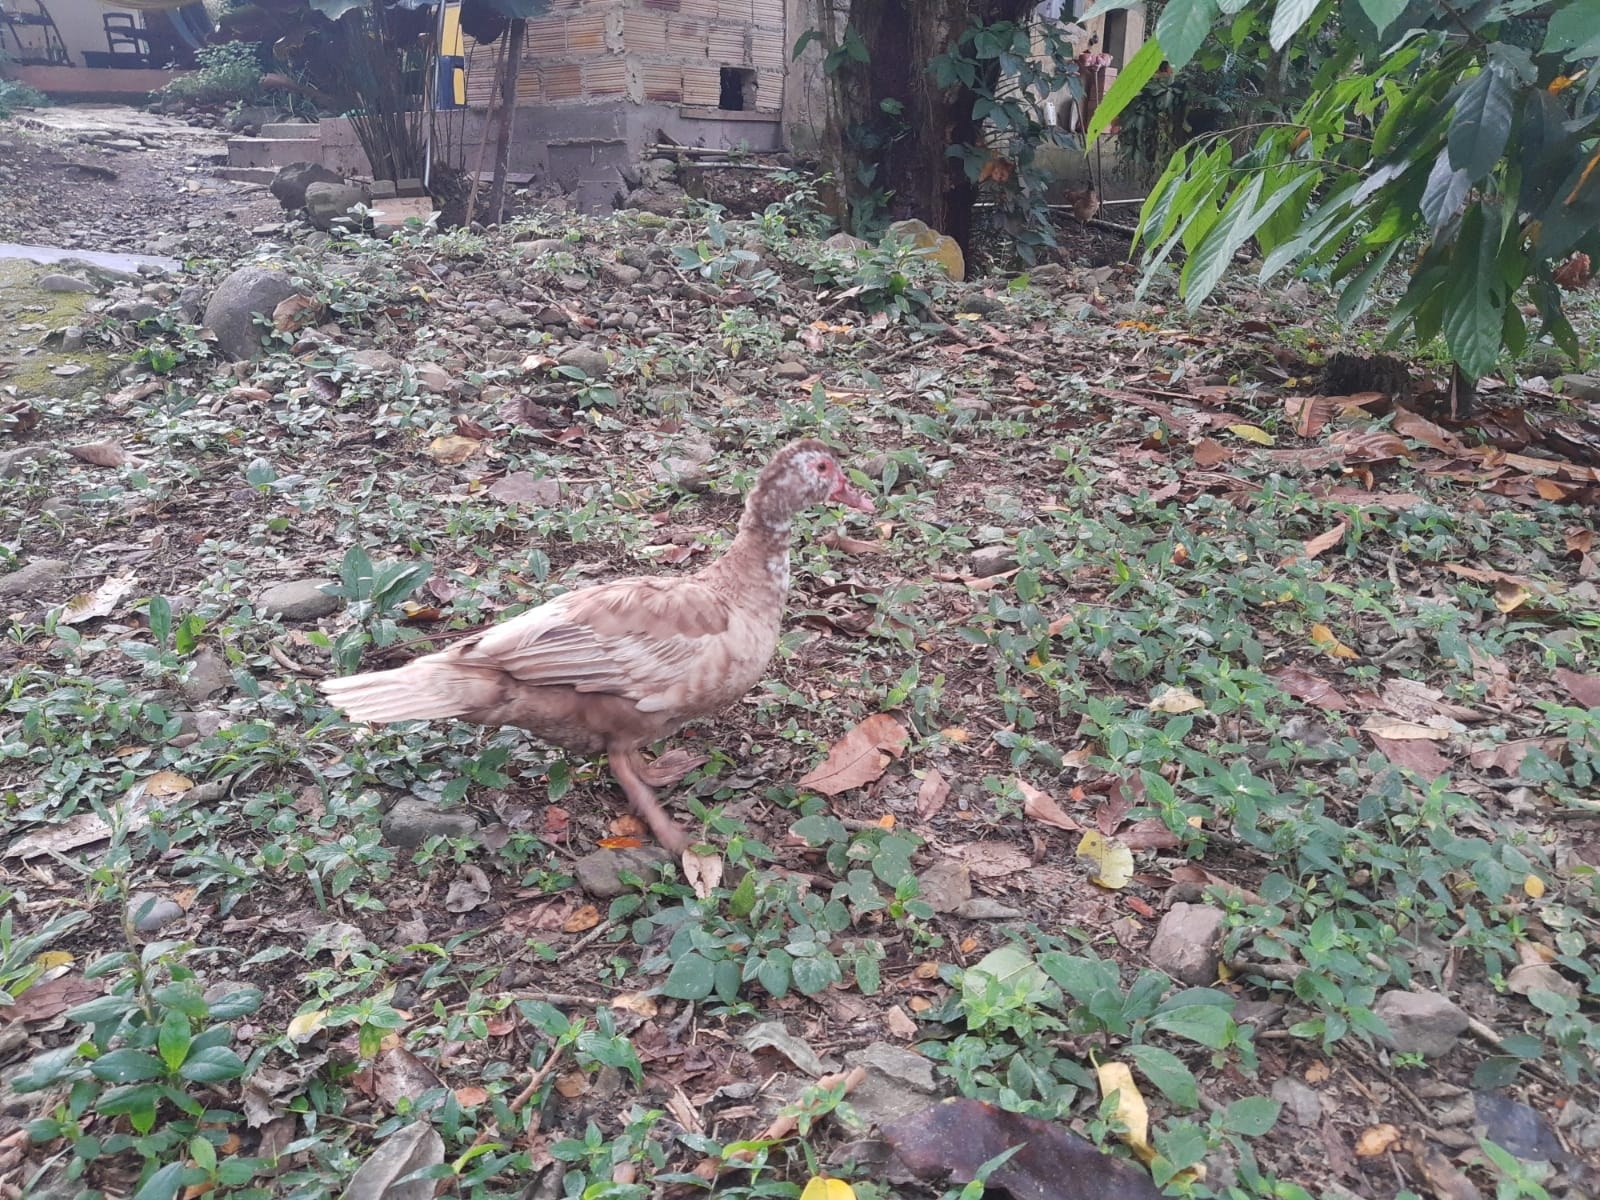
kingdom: Animalia
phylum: Chordata
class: Aves
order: Anseriformes
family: Anatidae
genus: Cairina
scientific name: Cairina moschata
